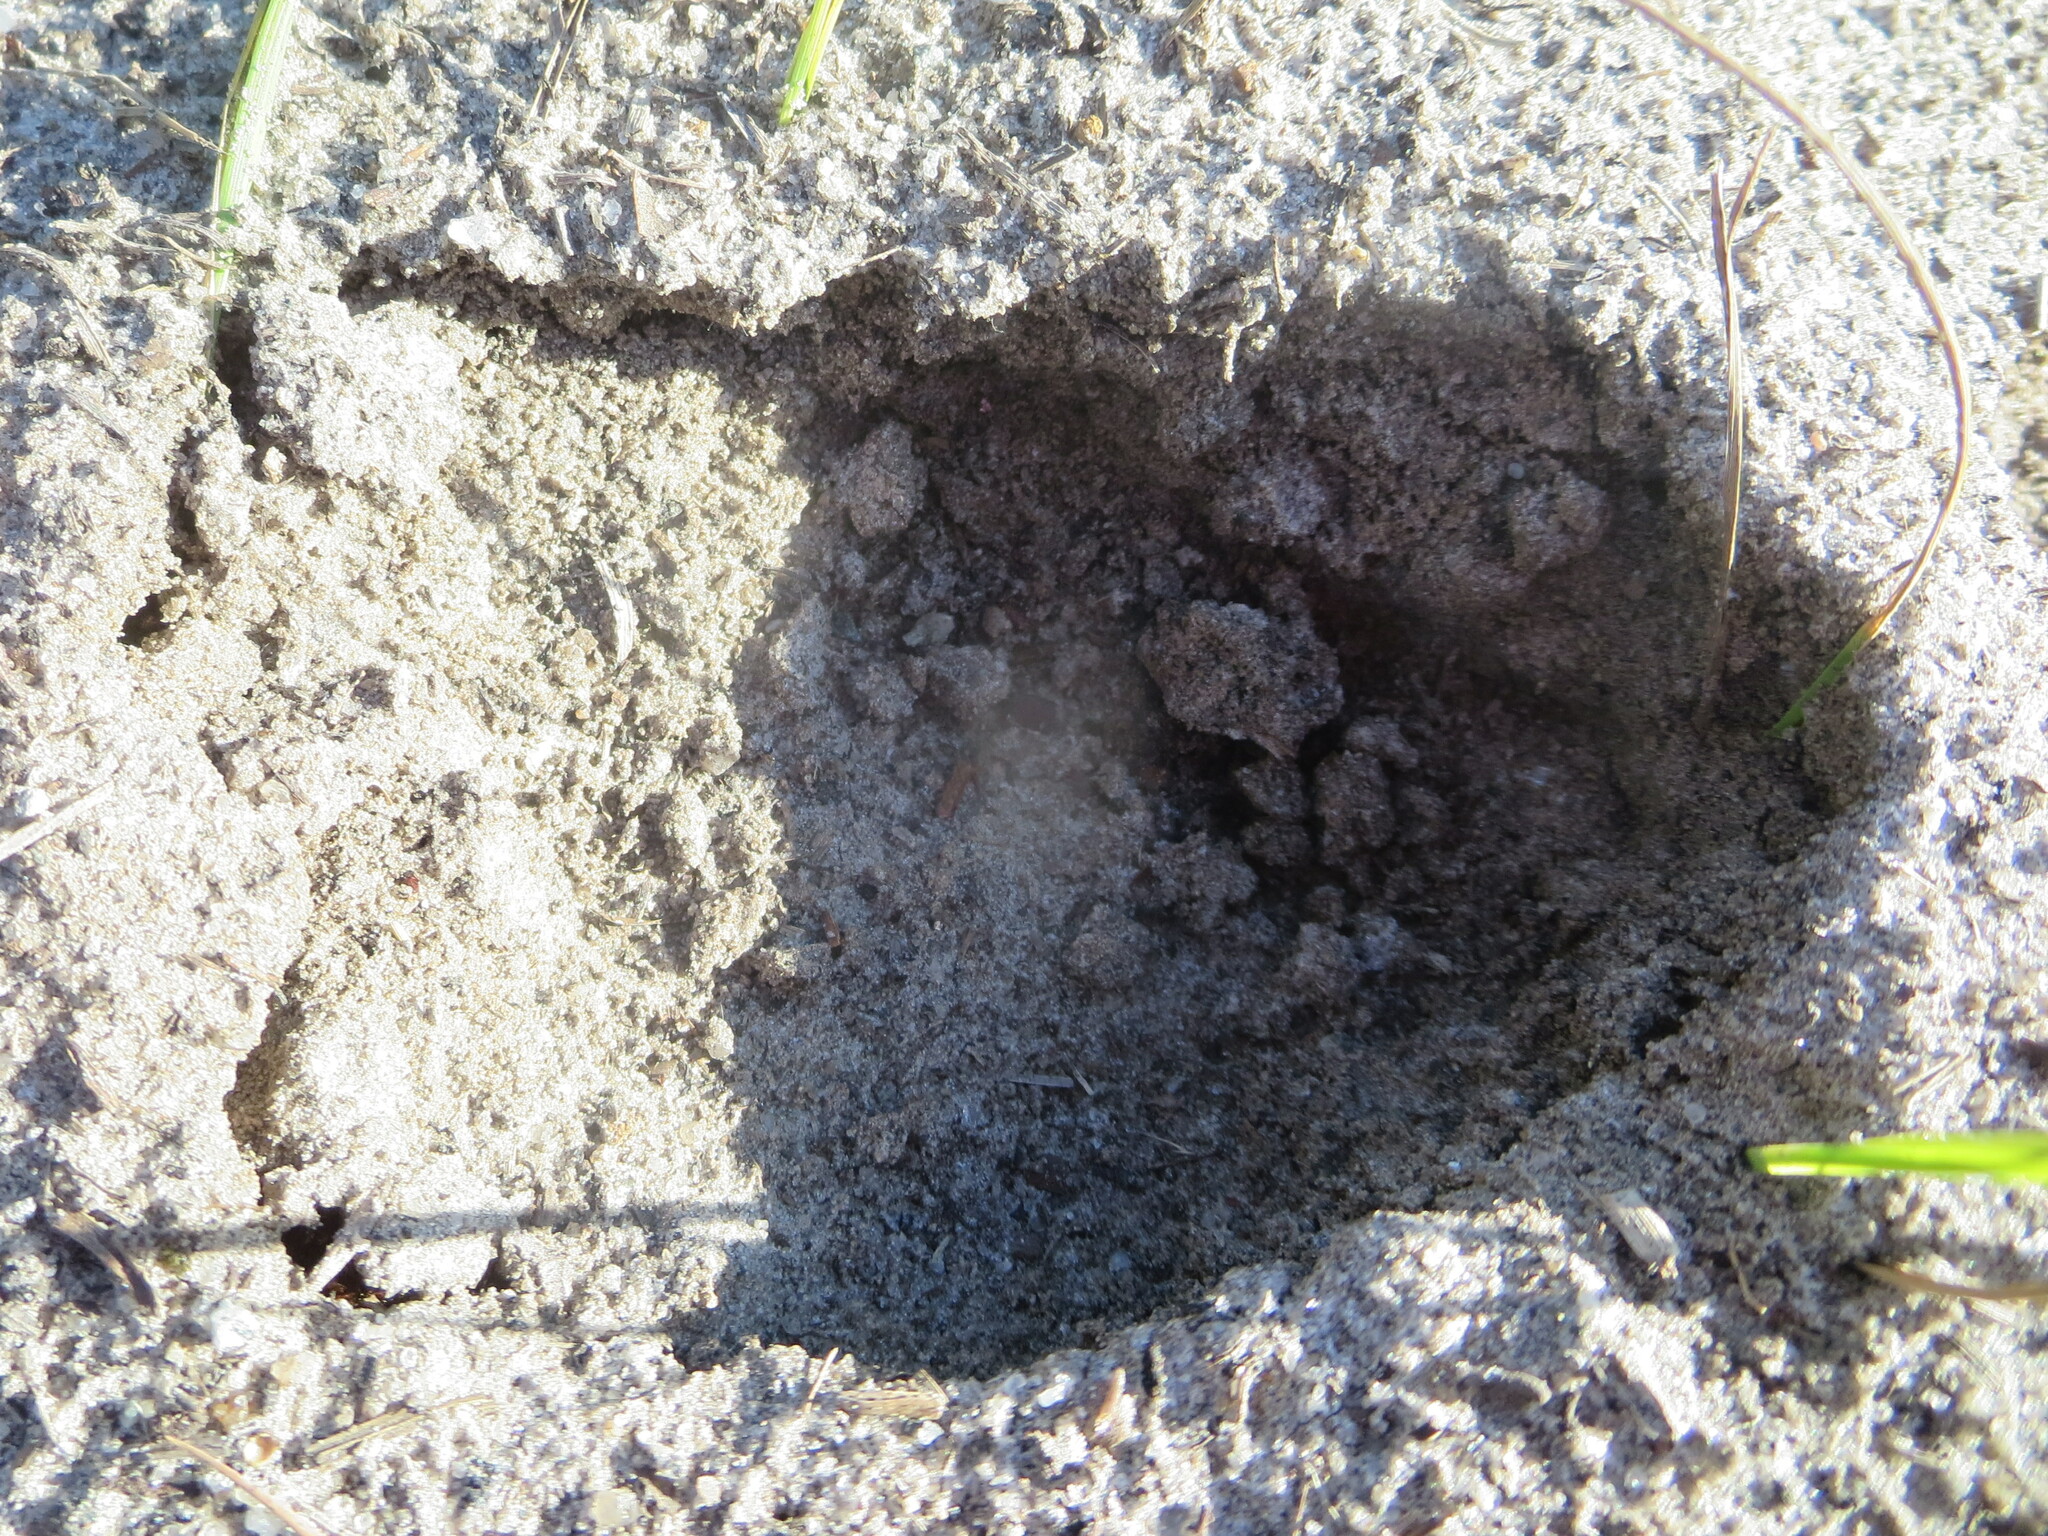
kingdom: Animalia
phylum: Chordata
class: Mammalia
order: Artiodactyla
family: Cervidae
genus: Odocoileus
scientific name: Odocoileus virginianus
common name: White-tailed deer
